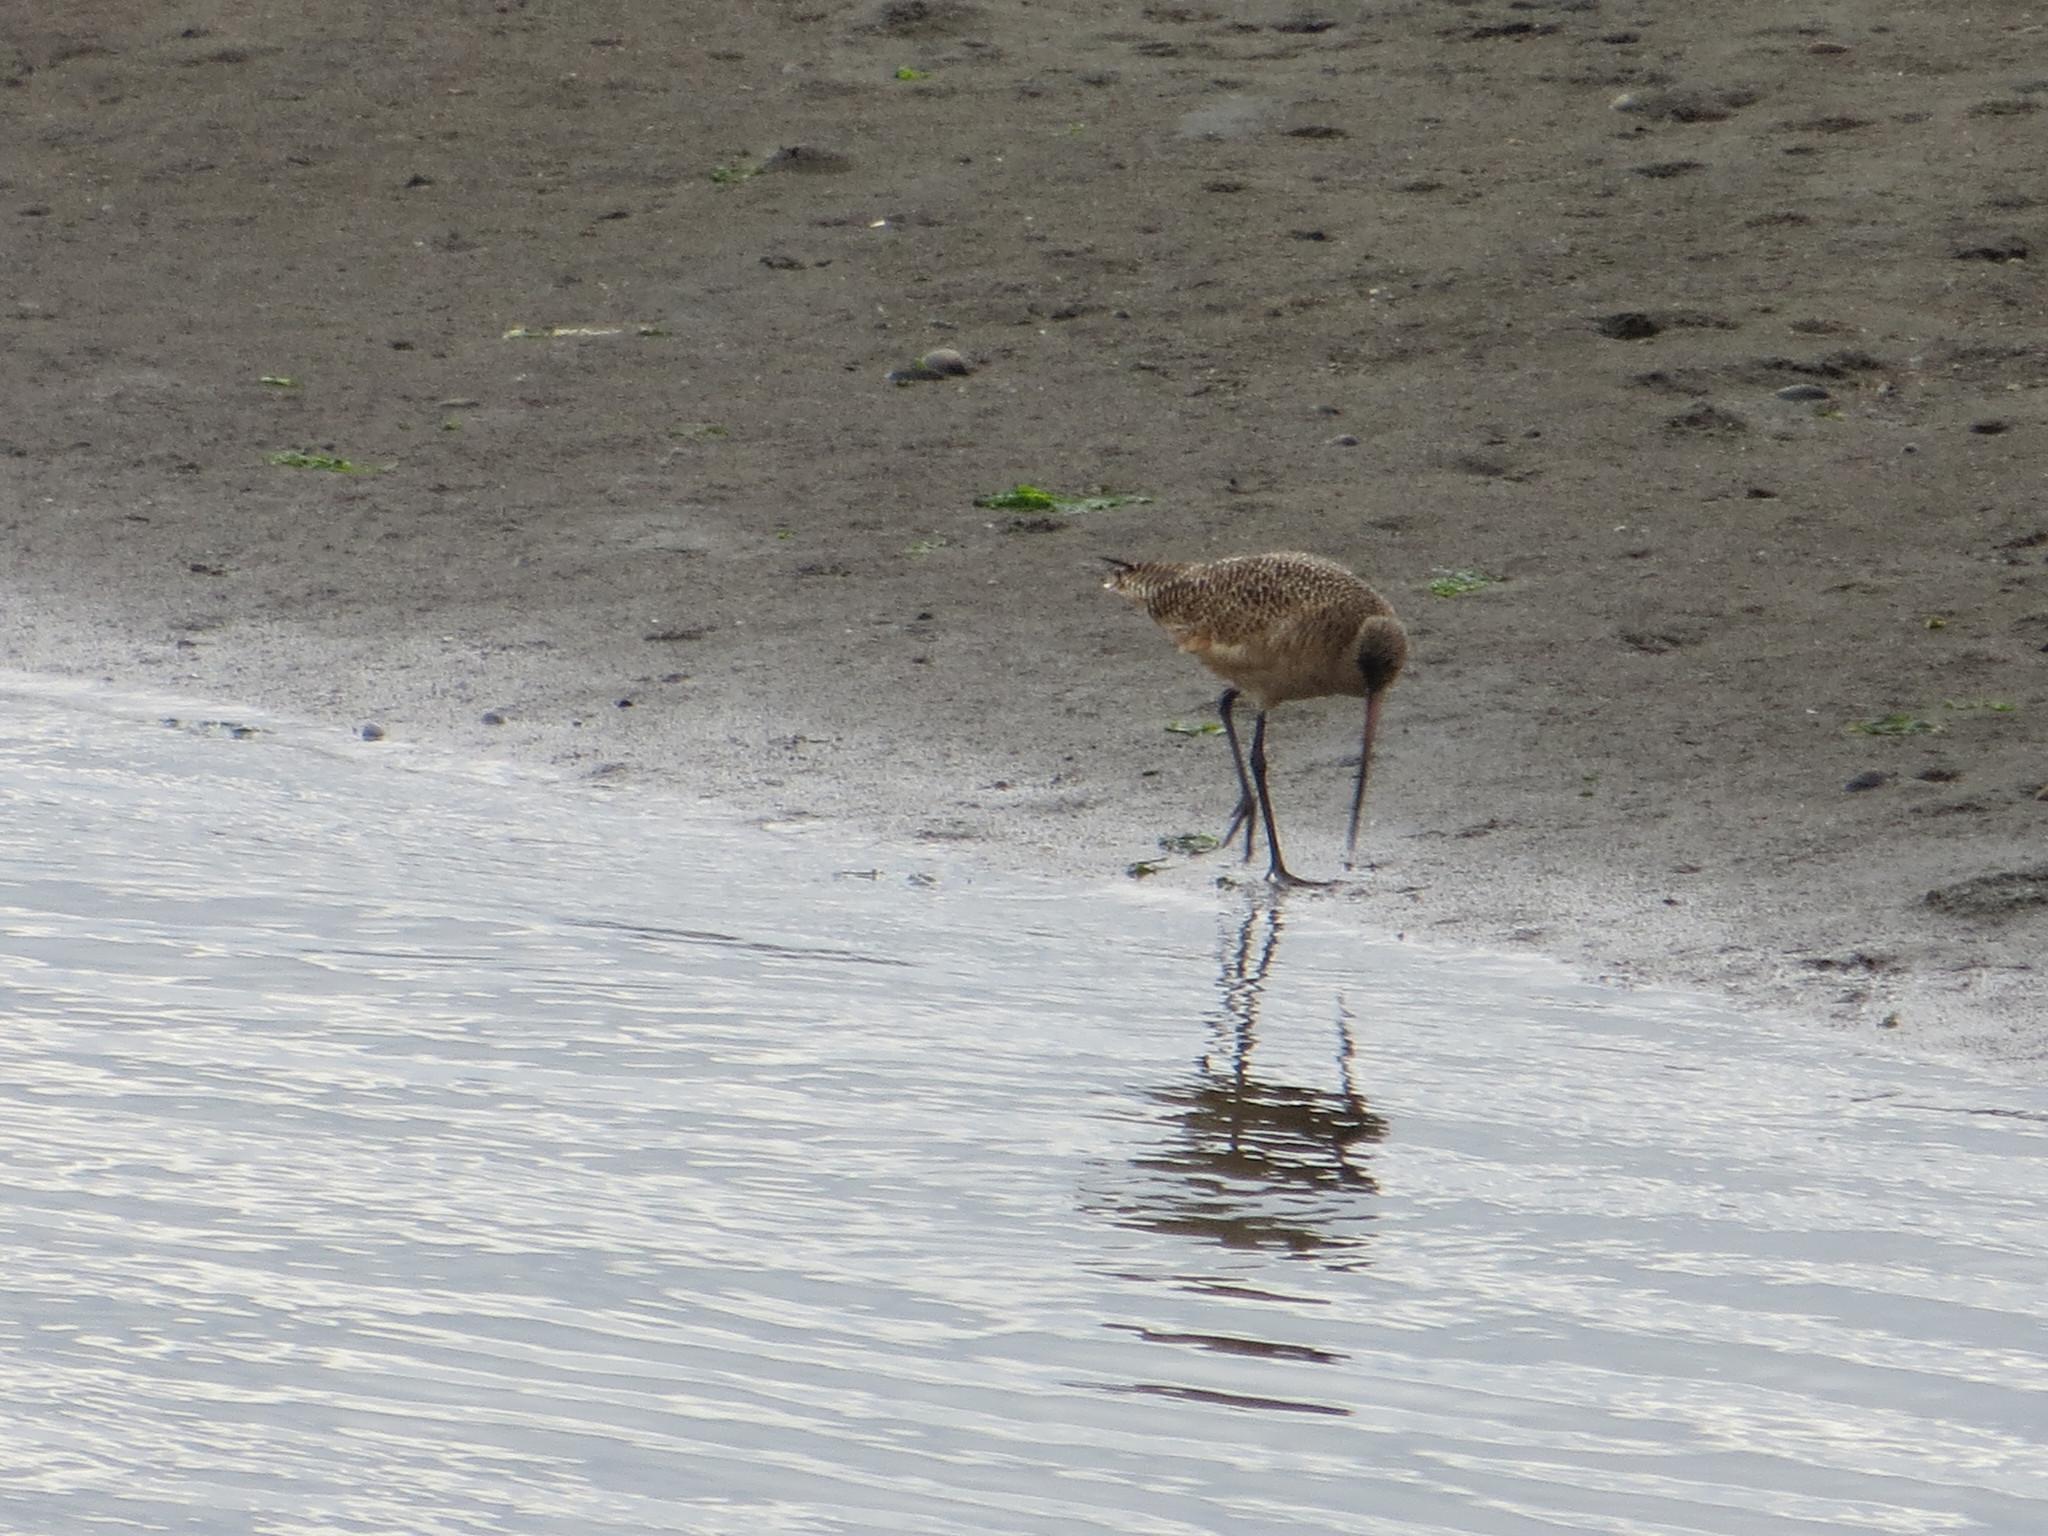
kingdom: Animalia
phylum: Chordata
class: Aves
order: Charadriiformes
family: Scolopacidae
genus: Limosa
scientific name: Limosa fedoa
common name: Marbled godwit
